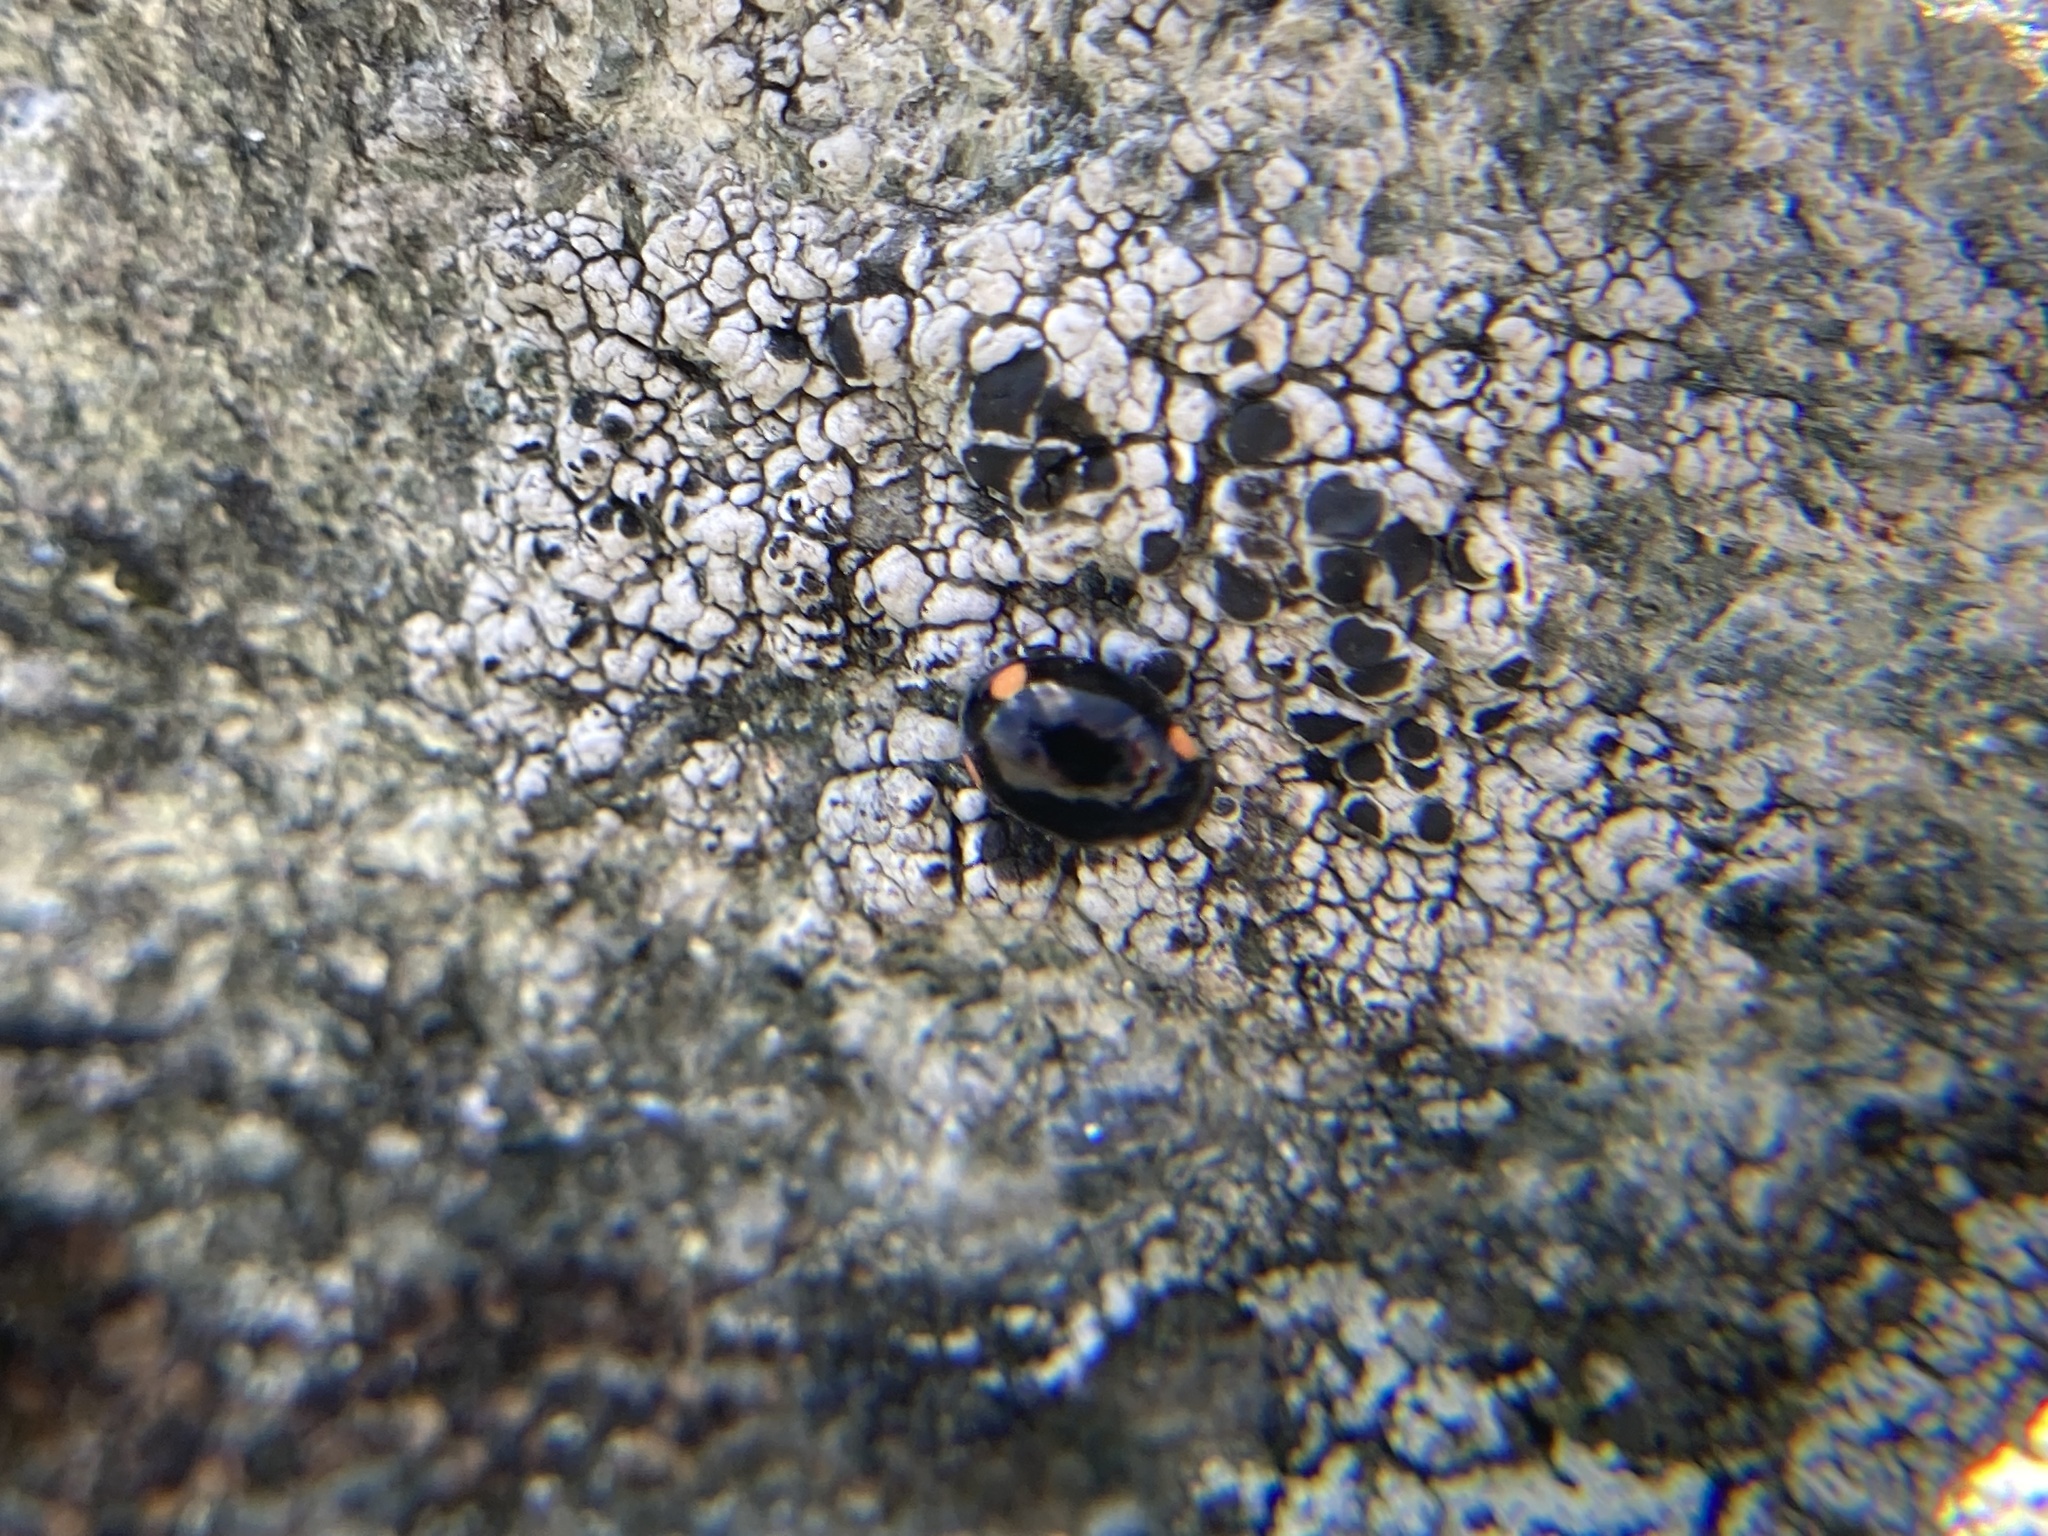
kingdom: Animalia
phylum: Arthropoda
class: Insecta
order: Coleoptera
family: Coccinellidae
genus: Hyperaspis
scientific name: Hyperaspis bigeminata
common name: Bigeminate sigil lady beetle
